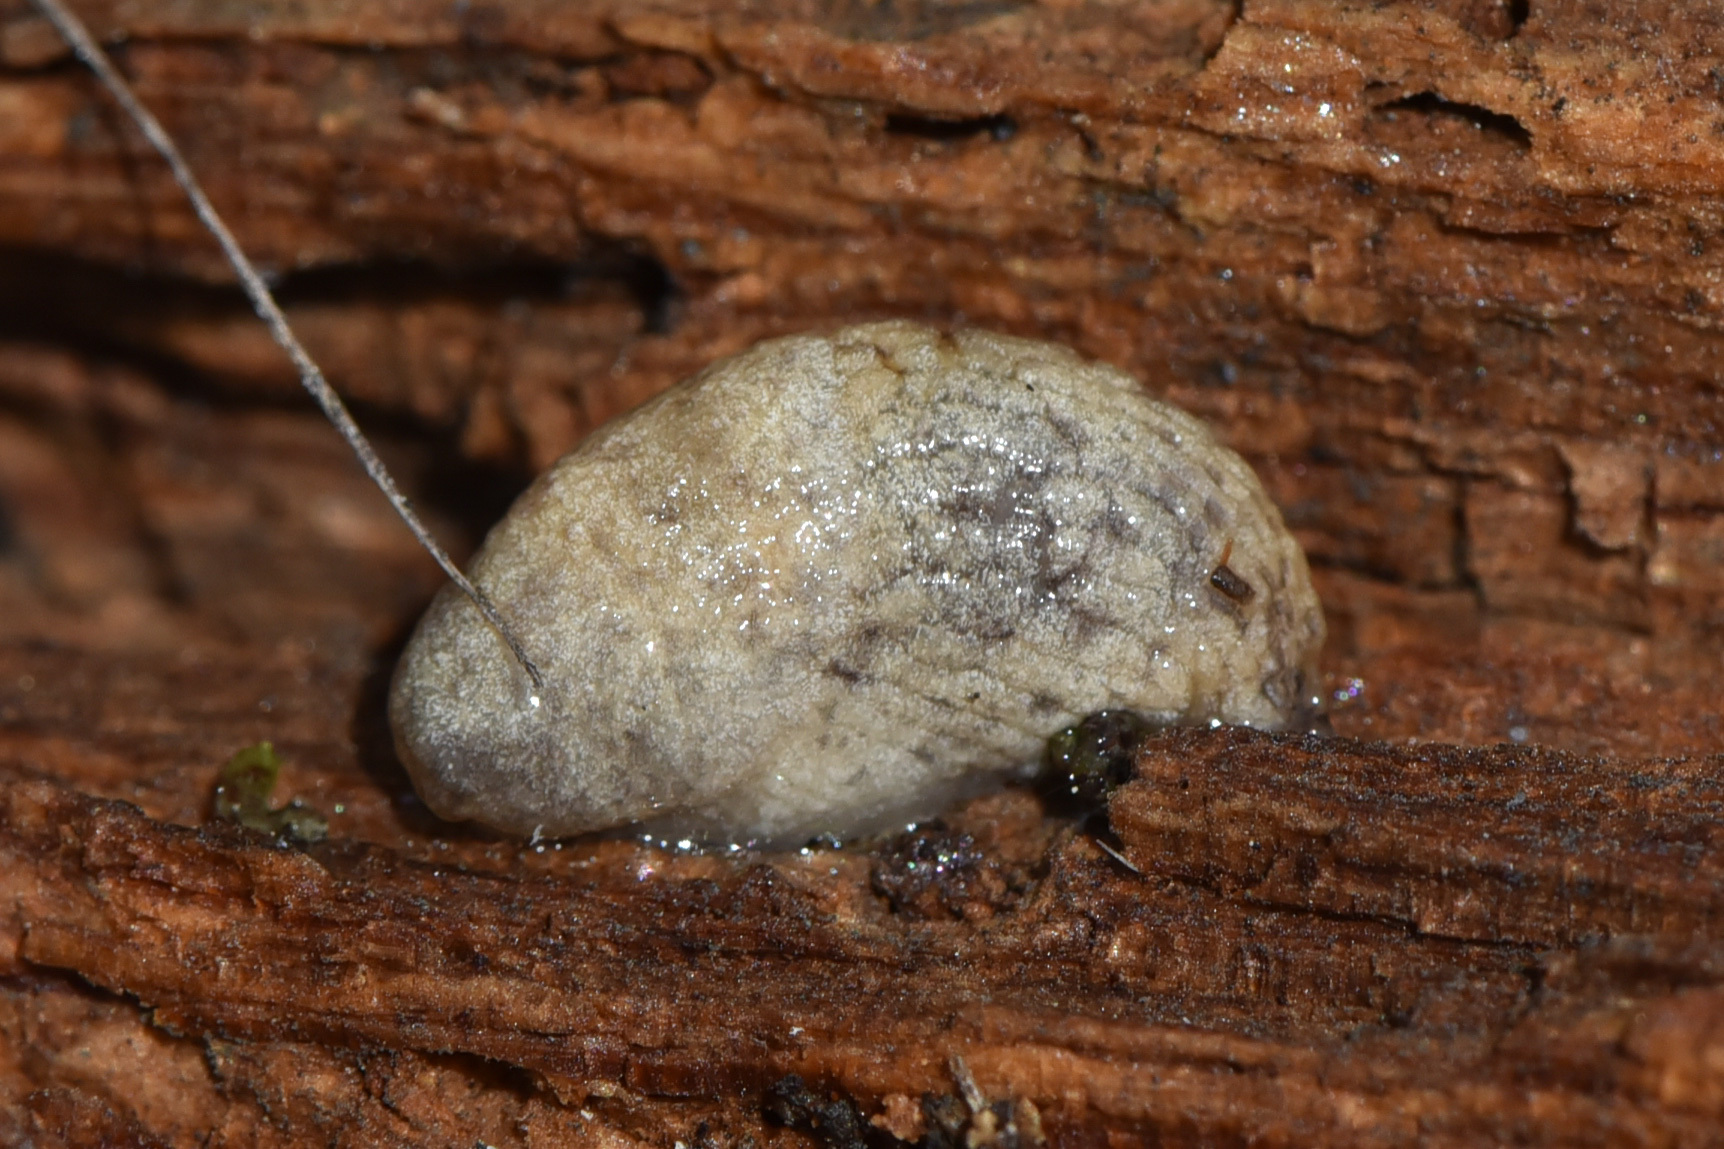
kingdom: Animalia
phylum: Mollusca
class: Gastropoda
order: Stylommatophora
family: Agriolimacidae
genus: Deroceras
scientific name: Deroceras reticulatum
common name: Gray field slug
